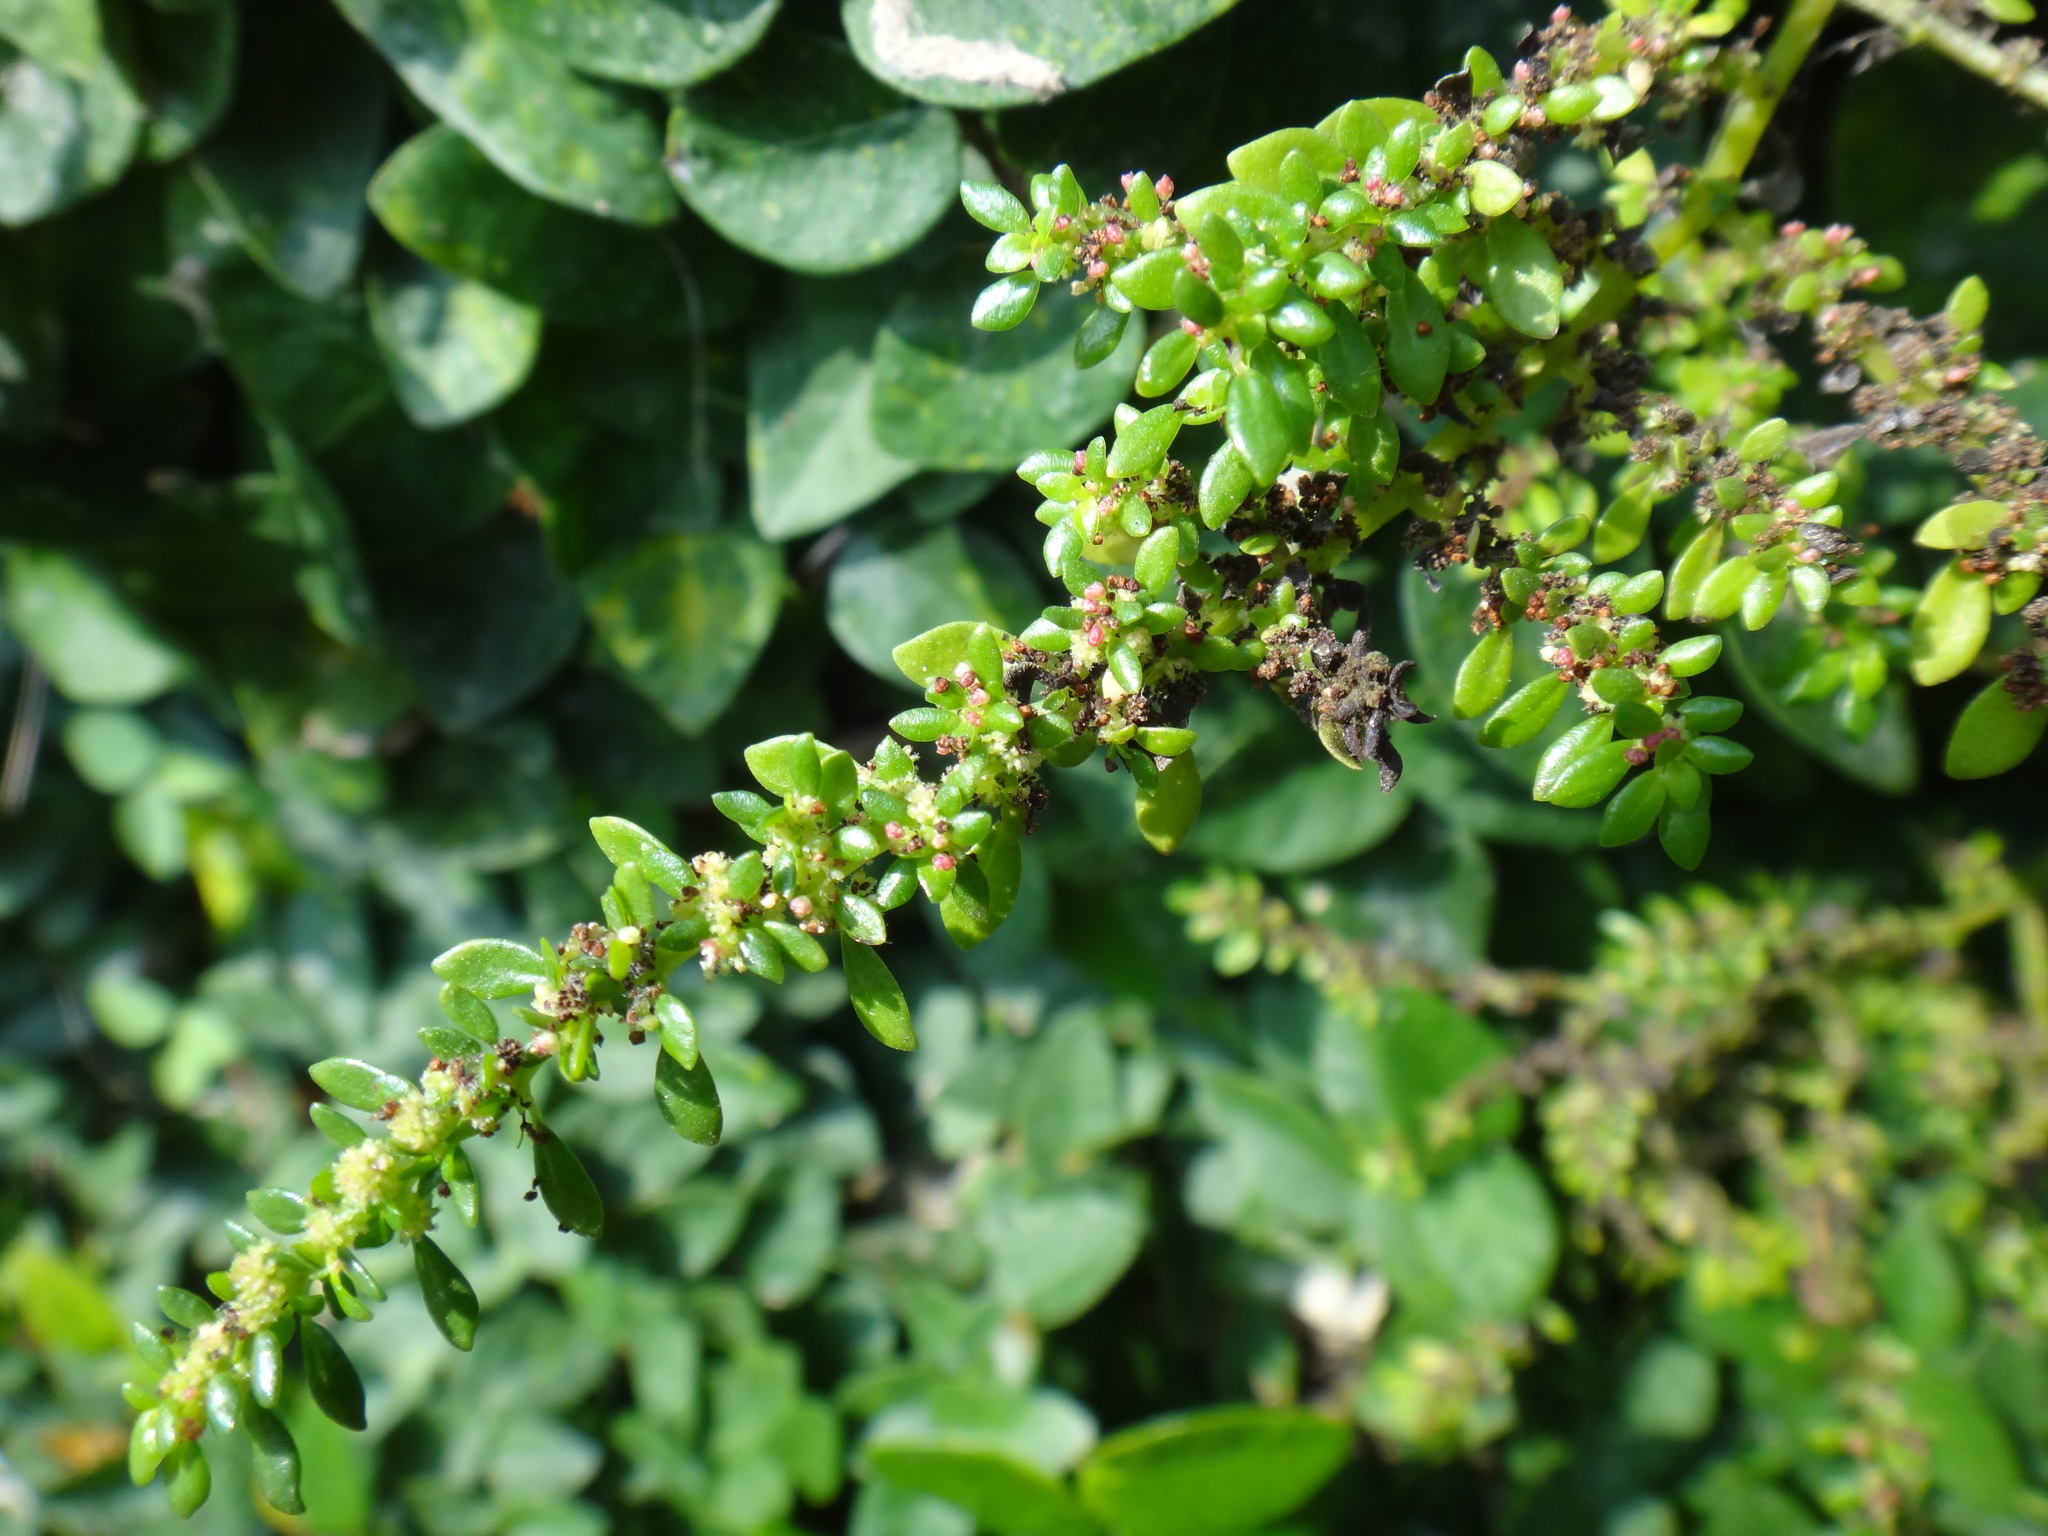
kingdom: Plantae
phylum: Tracheophyta
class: Magnoliopsida
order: Rosales
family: Urticaceae
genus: Pilea
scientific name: Pilea microphylla
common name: Artillery-plant
